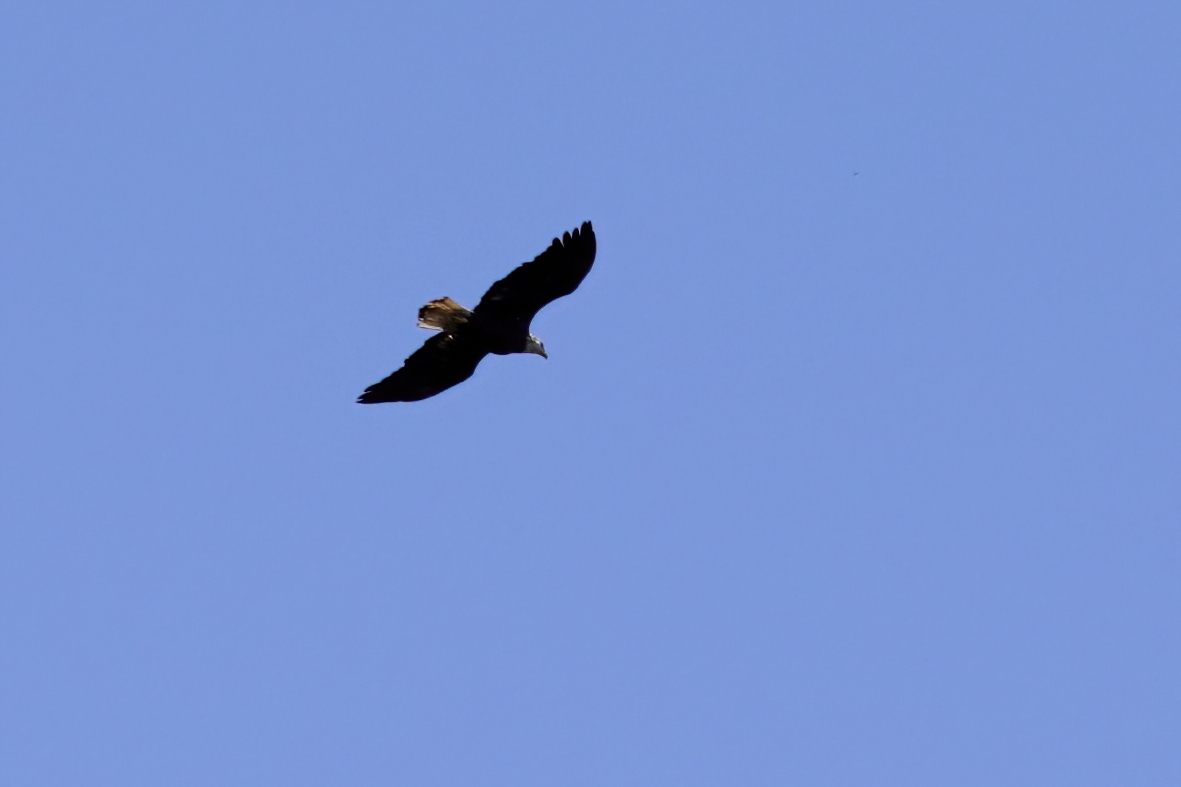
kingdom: Animalia
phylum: Chordata
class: Aves
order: Accipitriformes
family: Accipitridae
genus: Haliaeetus
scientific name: Haliaeetus leucocephalus
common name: Bald eagle
